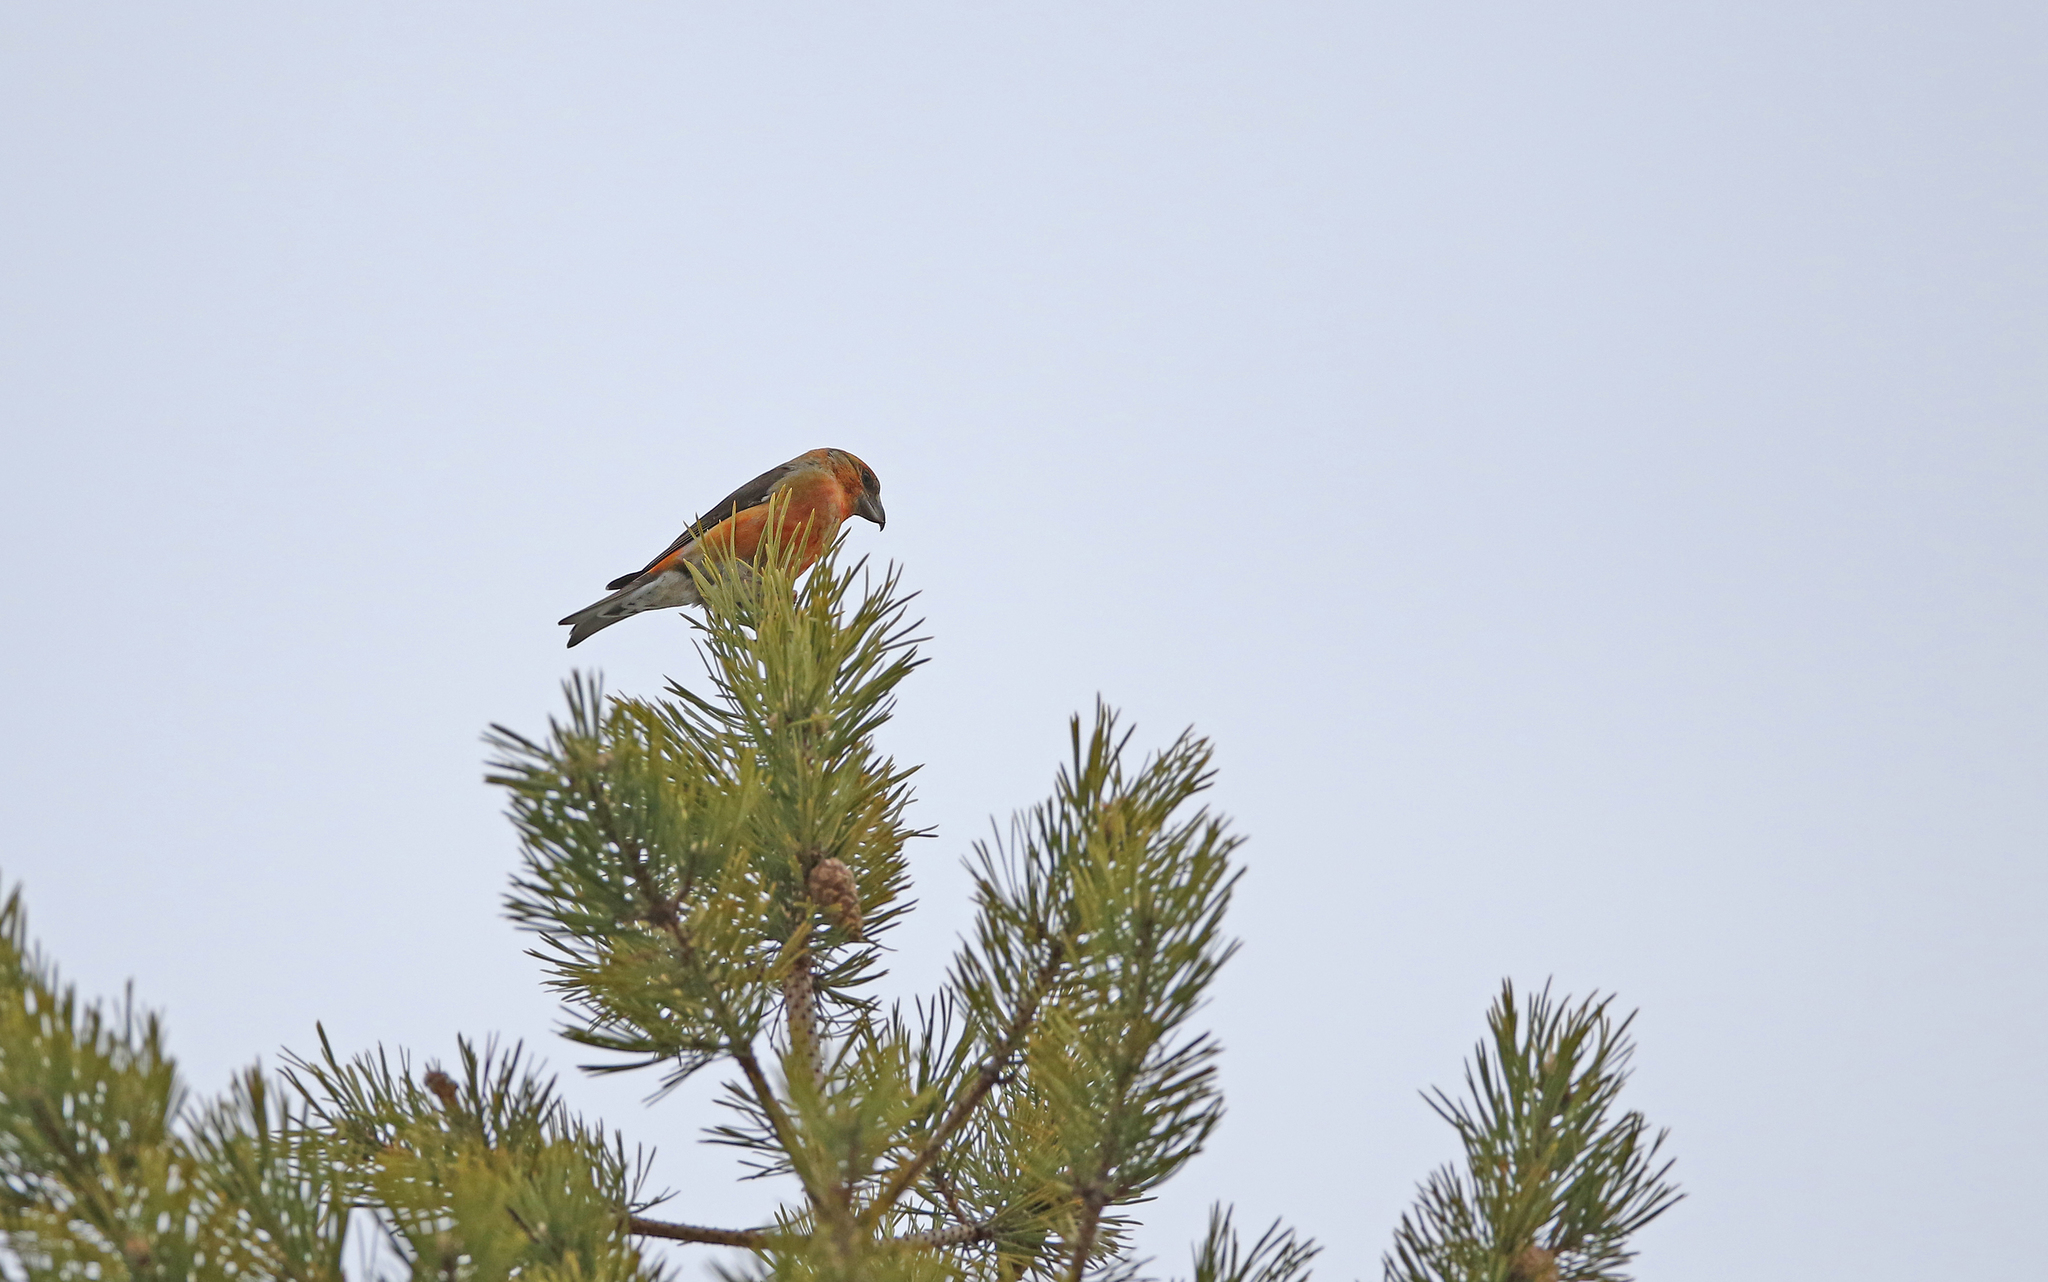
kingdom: Animalia
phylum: Chordata
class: Aves
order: Passeriformes
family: Fringillidae
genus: Loxia
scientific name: Loxia curvirostra
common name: Red crossbill
